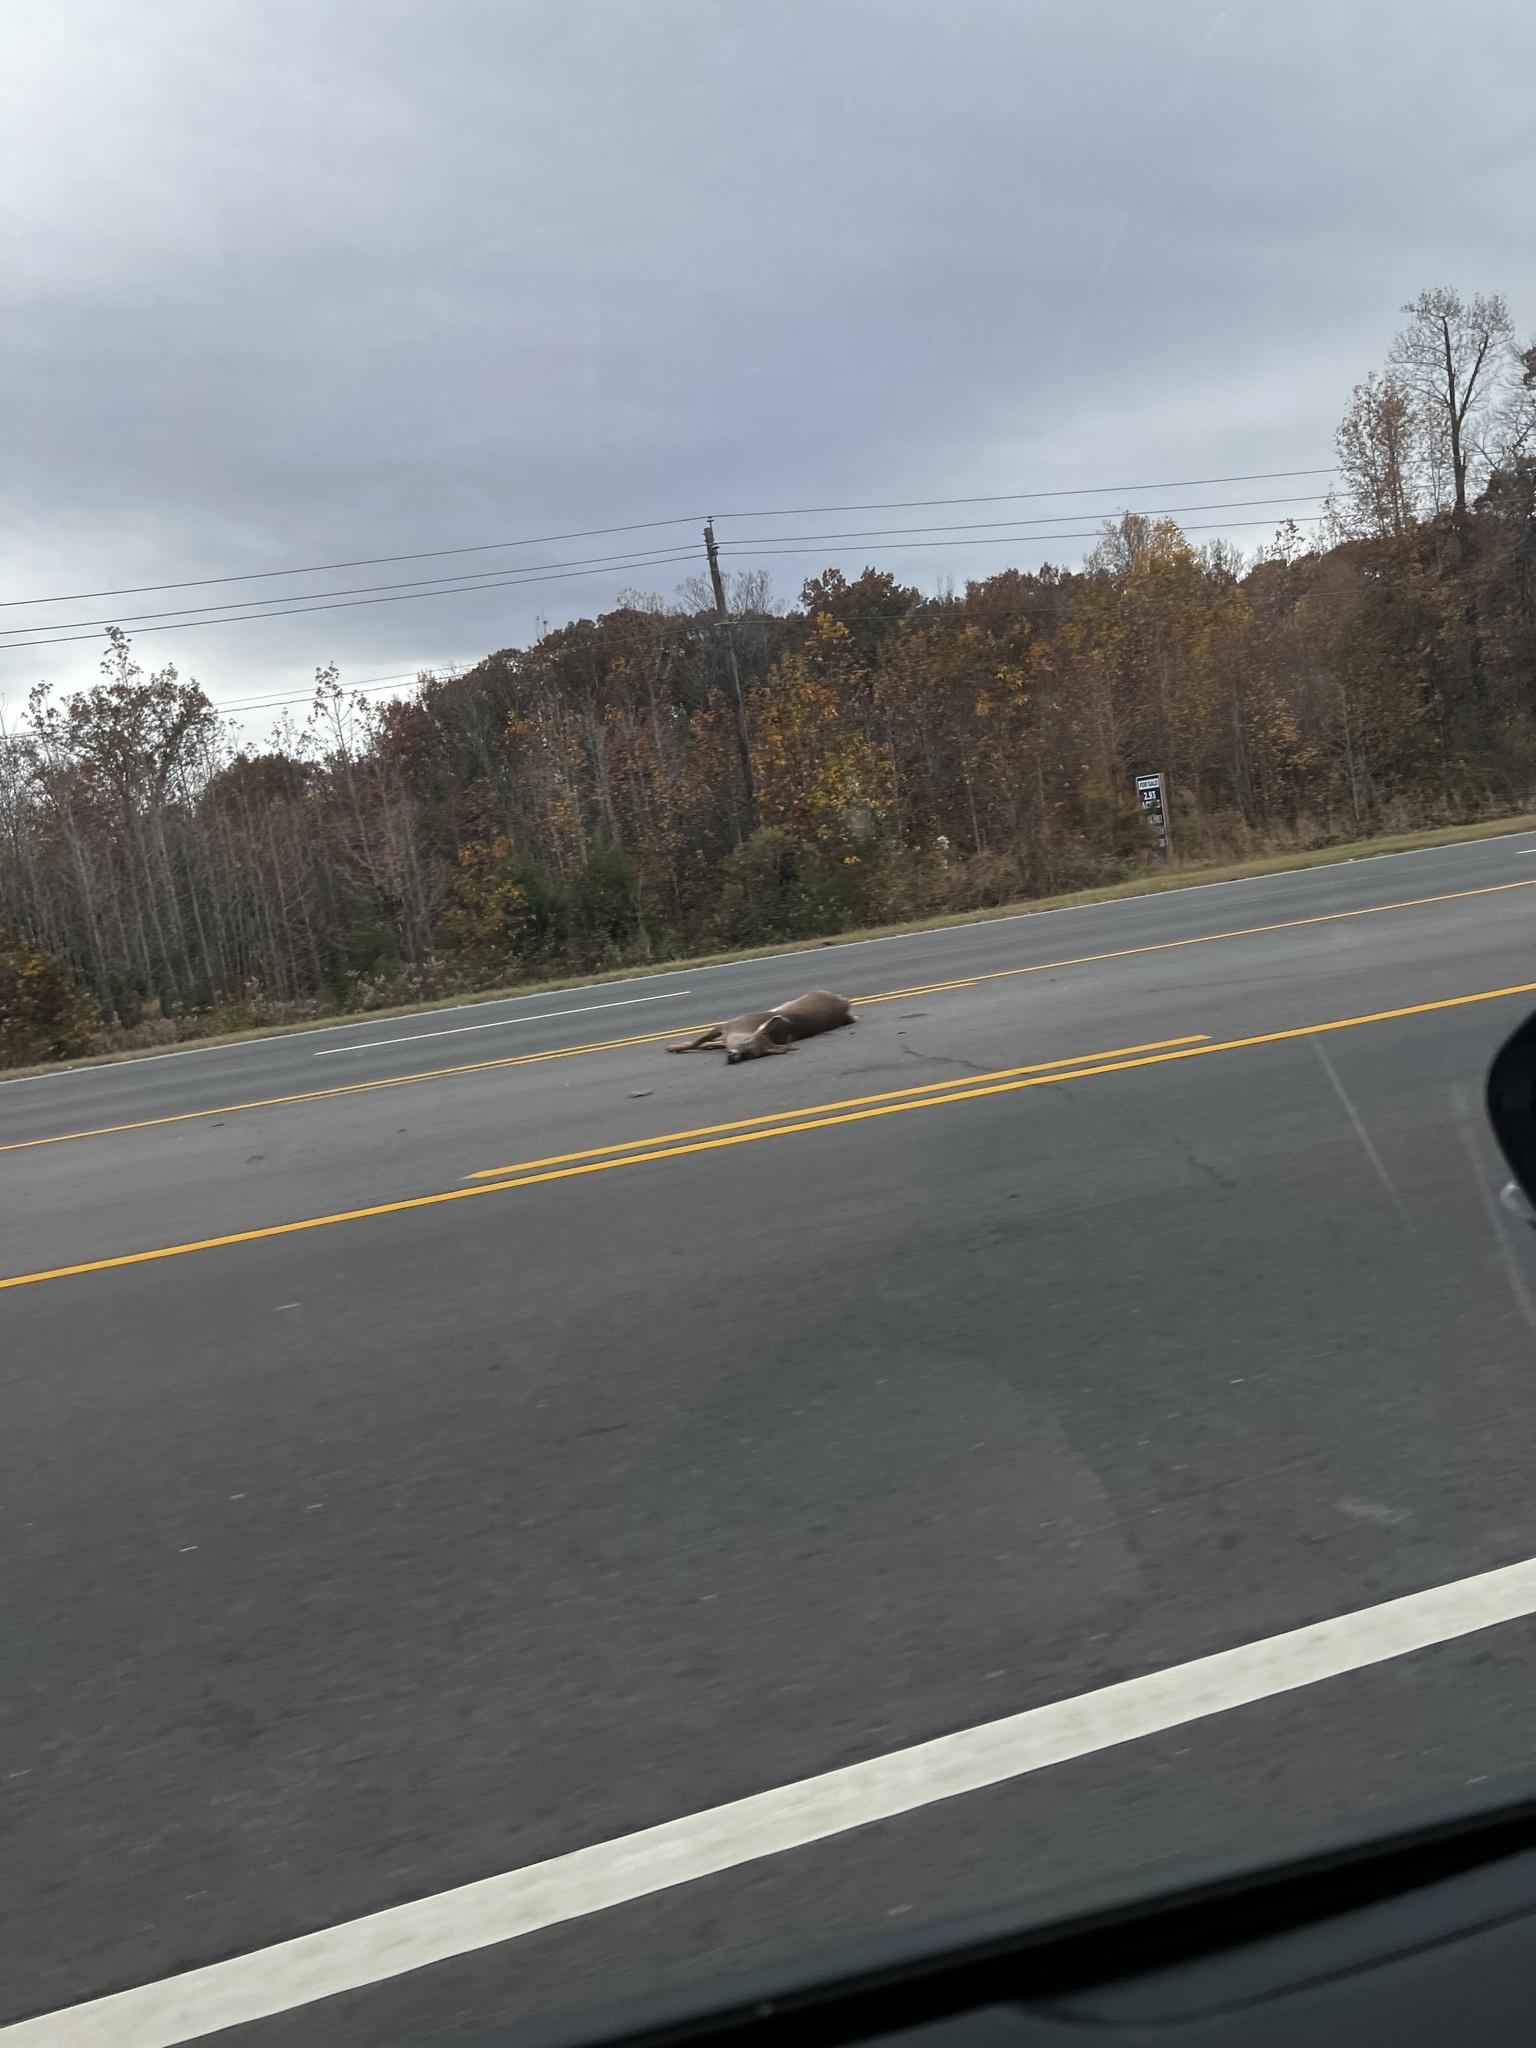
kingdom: Animalia
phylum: Chordata
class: Mammalia
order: Artiodactyla
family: Cervidae
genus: Odocoileus
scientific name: Odocoileus virginianus
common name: White-tailed deer
